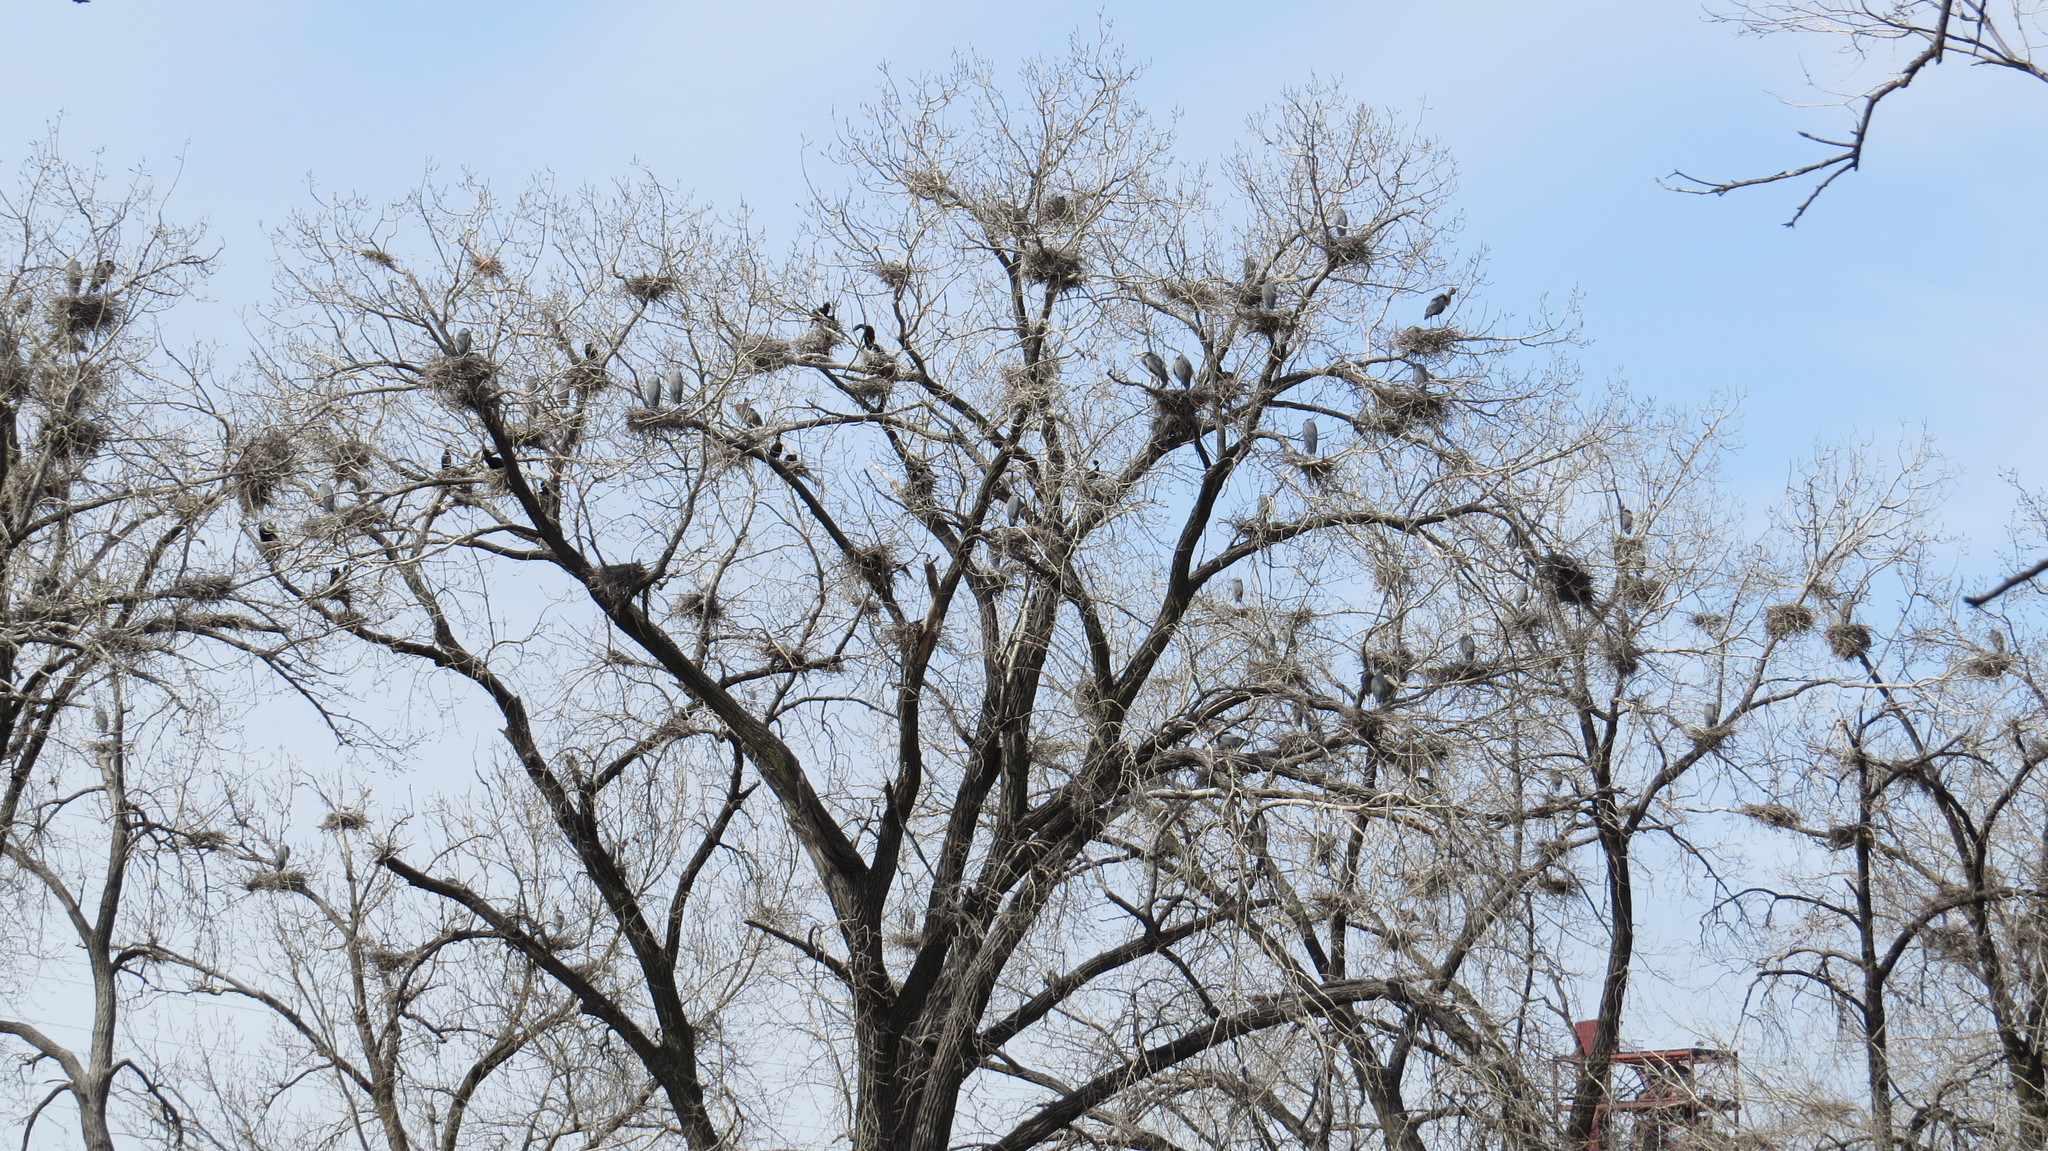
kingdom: Animalia
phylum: Chordata
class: Aves
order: Pelecaniformes
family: Ardeidae
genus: Ardea
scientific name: Ardea herodias
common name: Great blue heron
